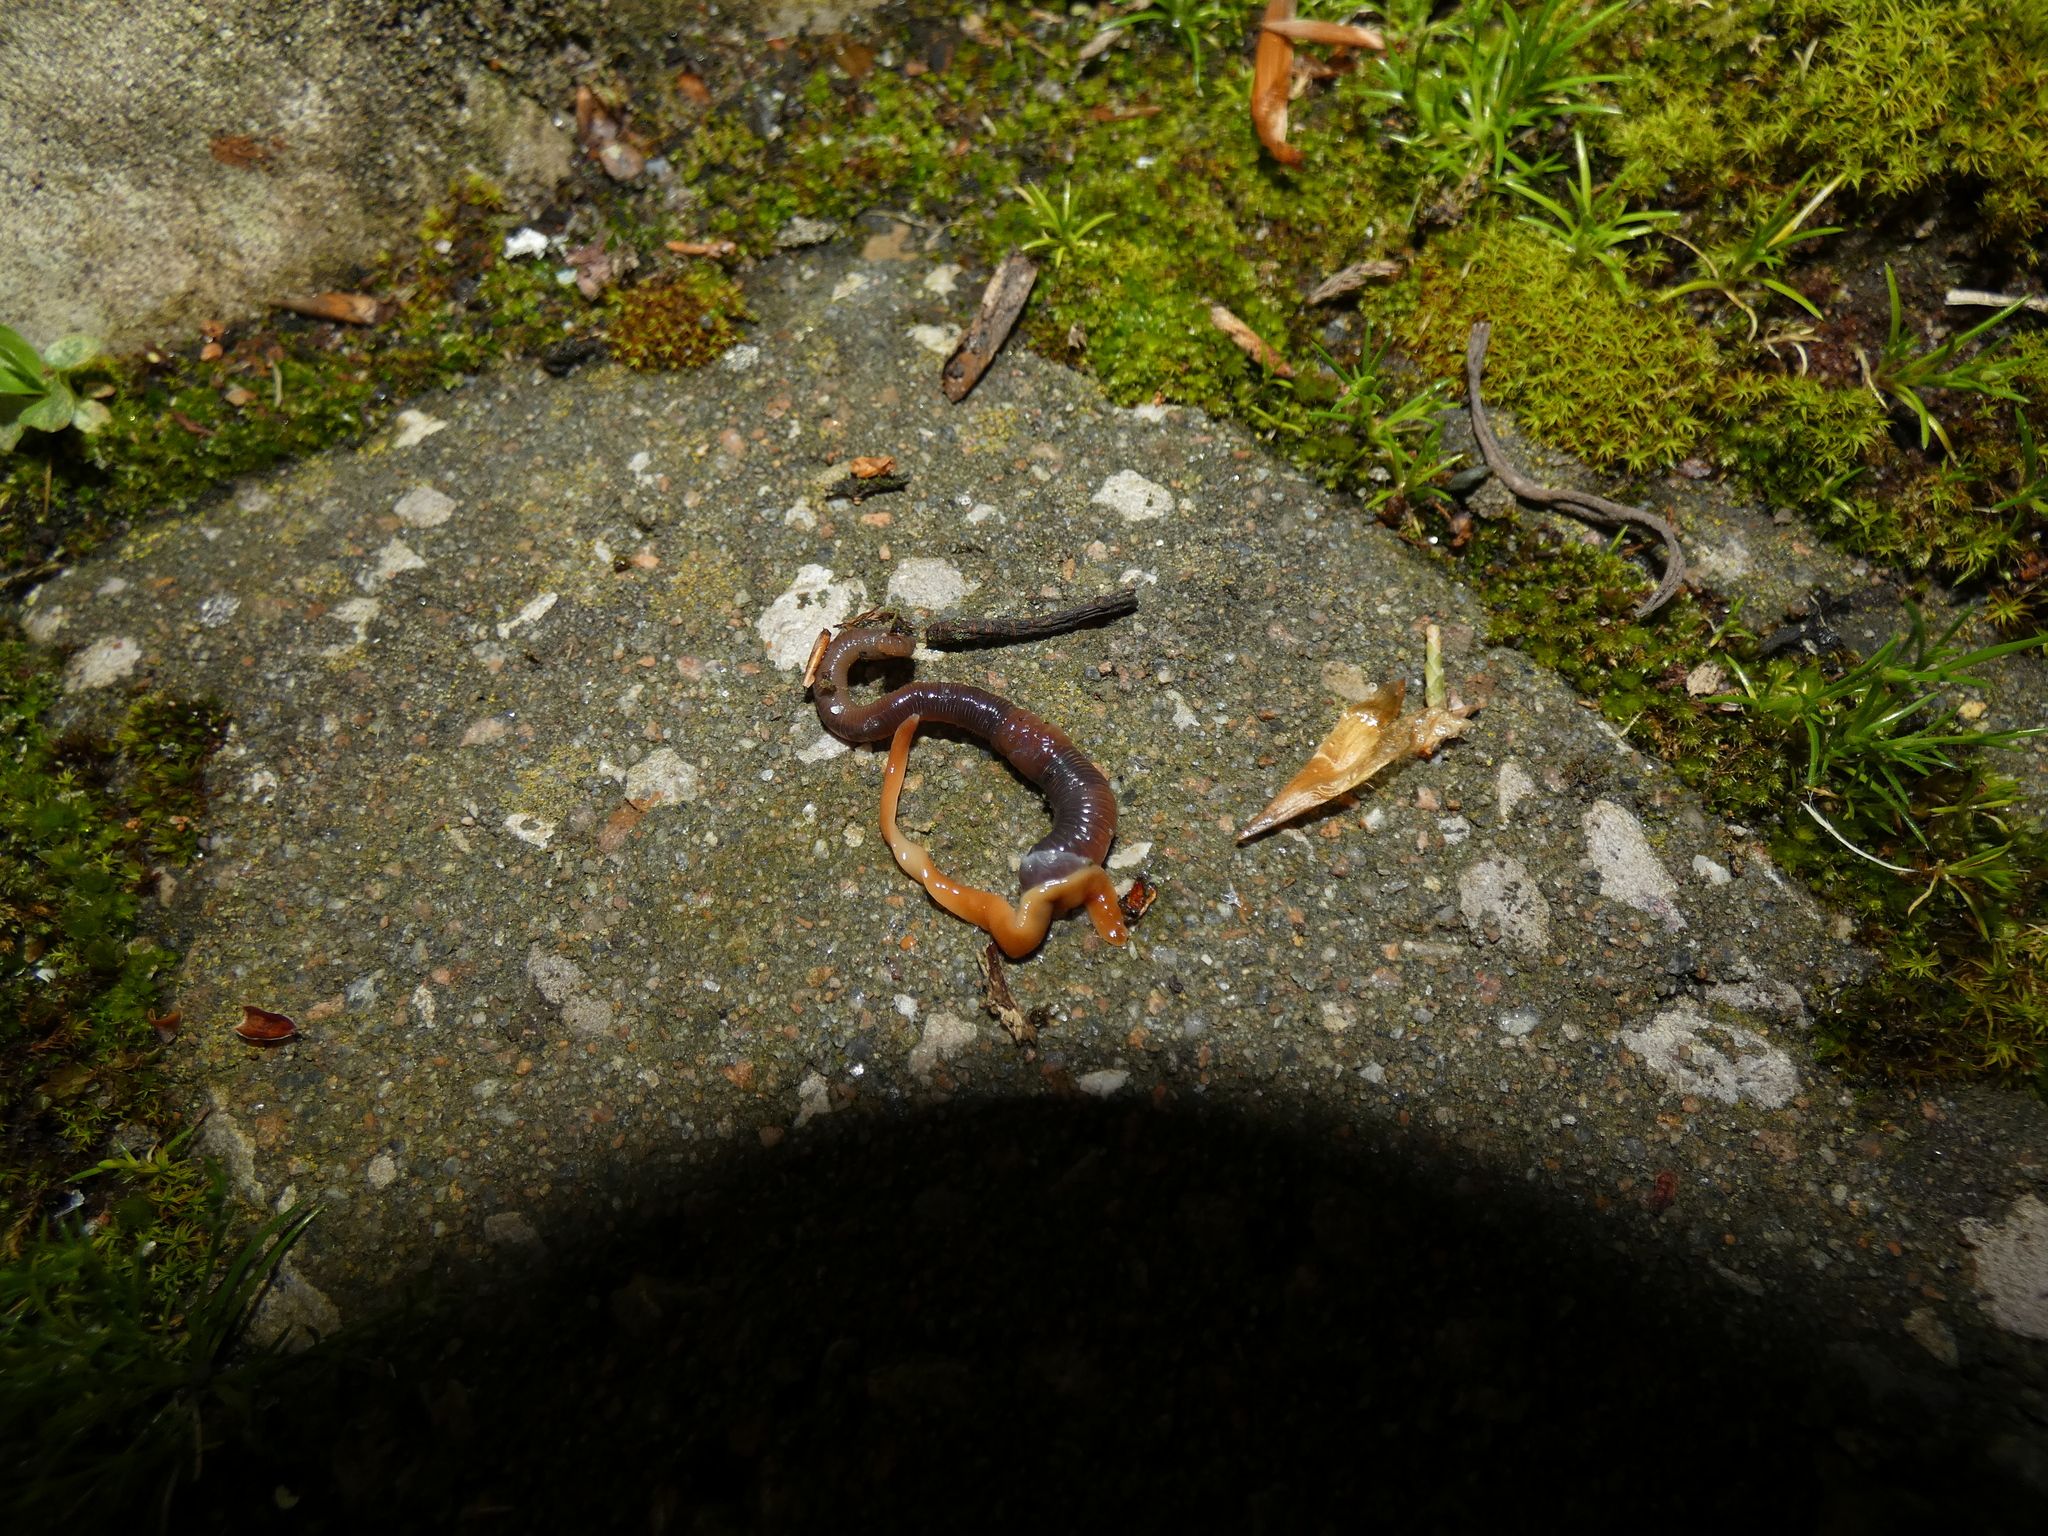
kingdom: Animalia
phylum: Platyhelminthes
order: Tricladida
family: Geoplanidae
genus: Australoplana
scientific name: Australoplana sanguinea
